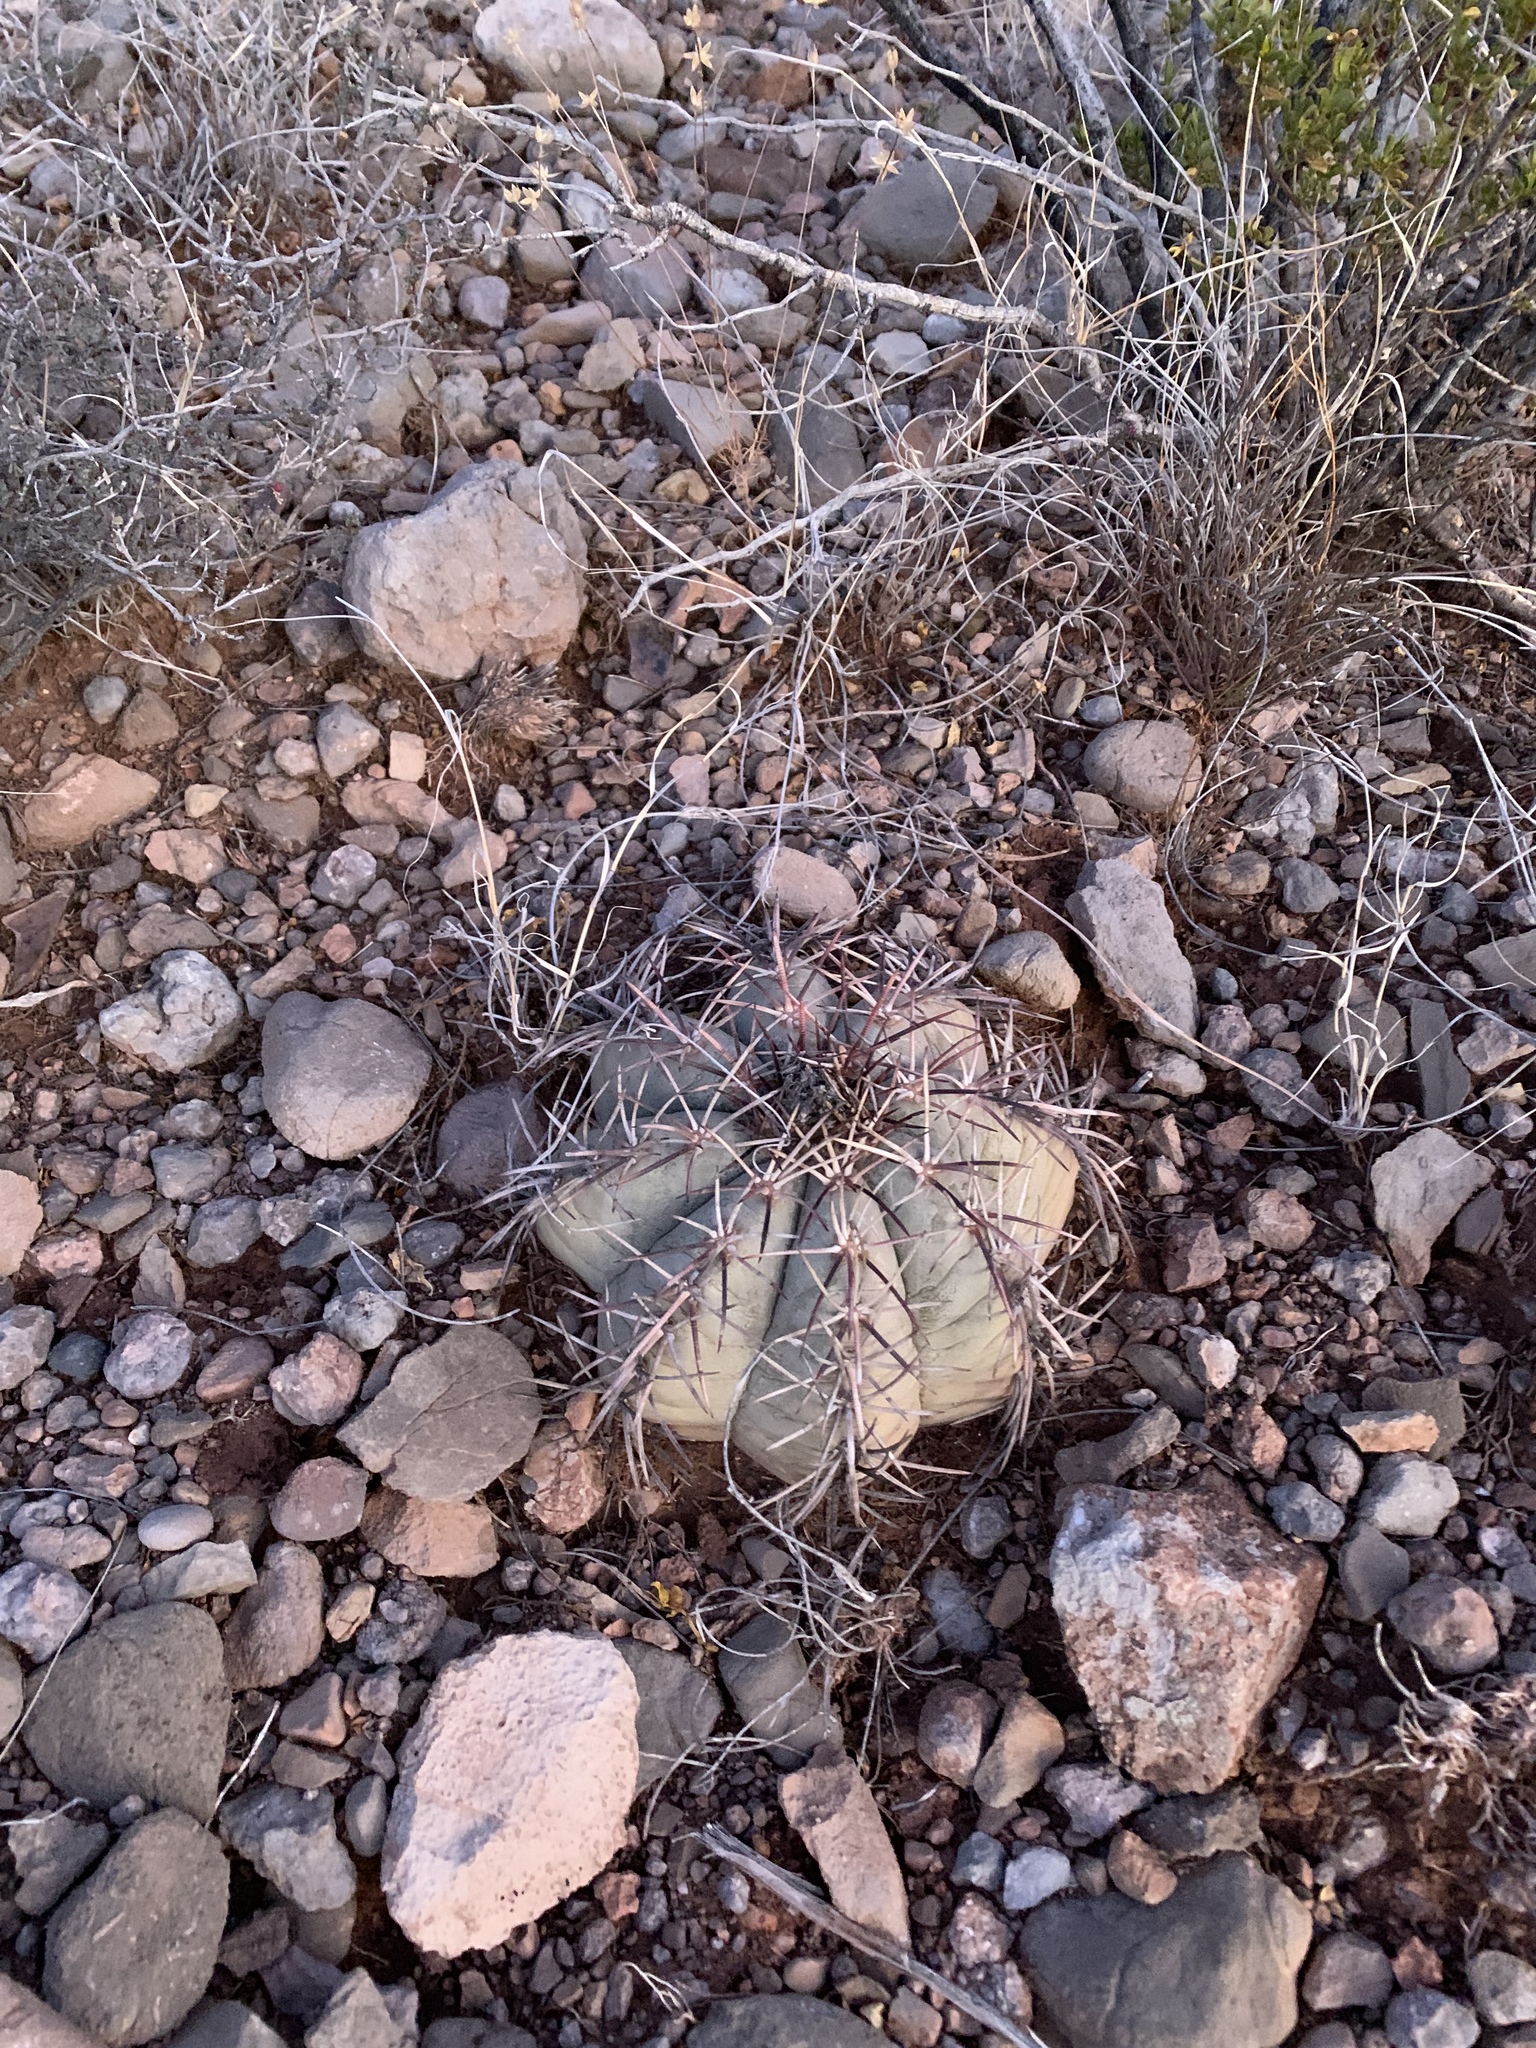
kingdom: Plantae
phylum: Tracheophyta
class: Magnoliopsida
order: Caryophyllales
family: Cactaceae
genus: Echinocactus
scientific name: Echinocactus horizonthalonius
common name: Devilshead
